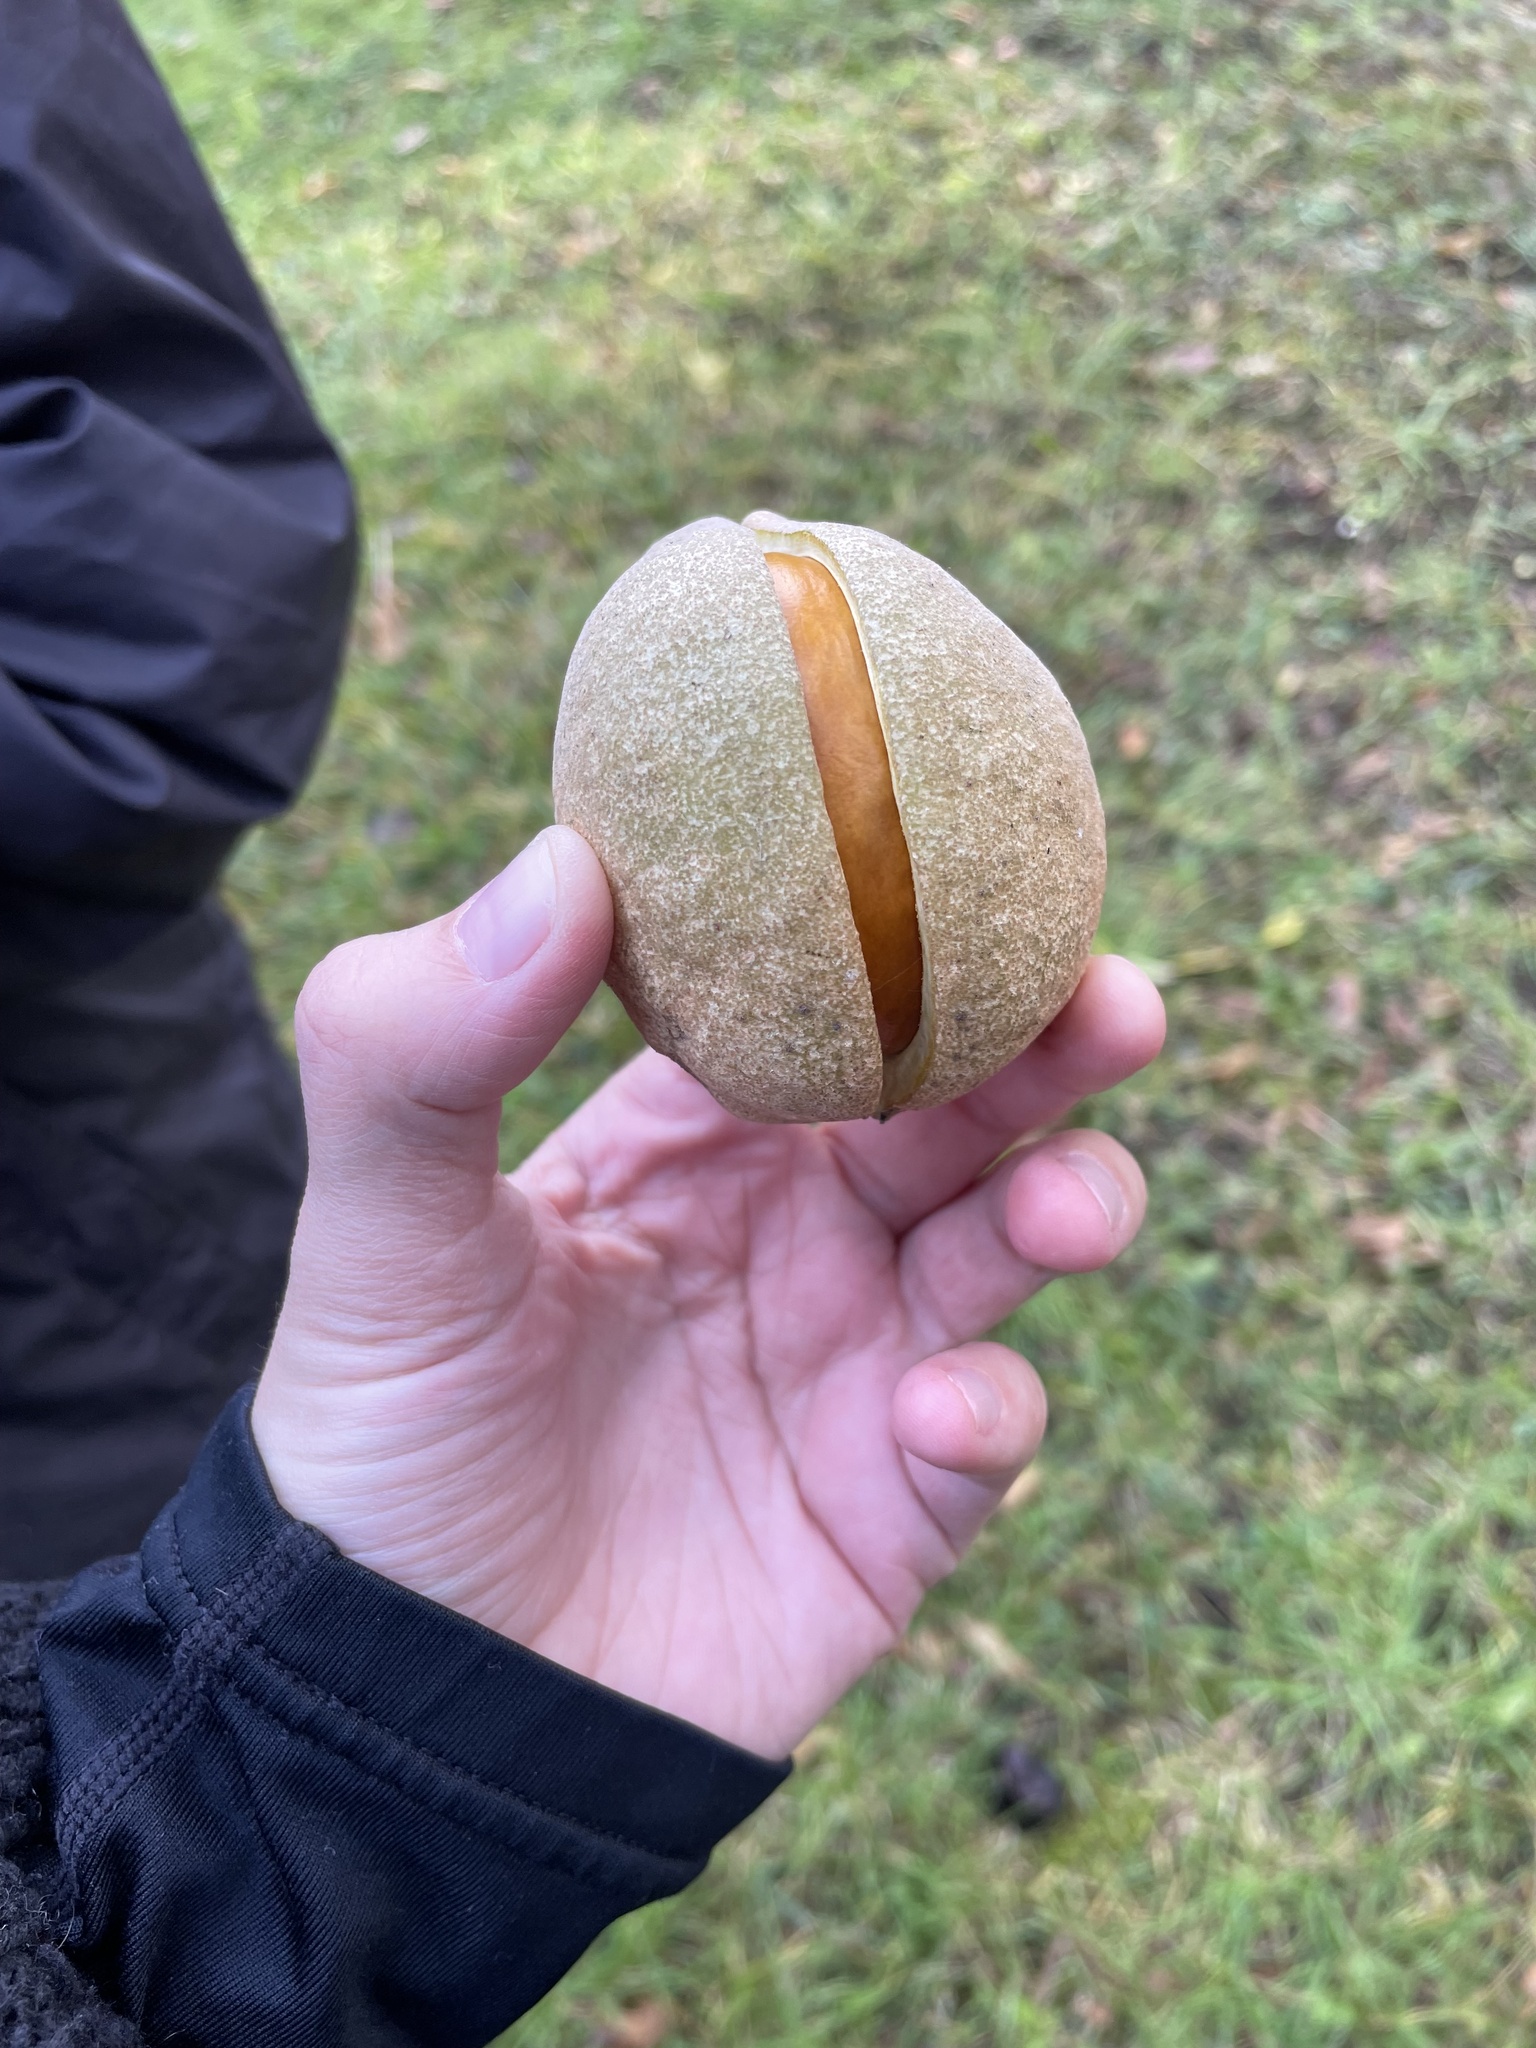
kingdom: Plantae
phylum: Tracheophyta
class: Magnoliopsida
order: Sapindales
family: Sapindaceae
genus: Aesculus
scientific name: Aesculus californica
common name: California buckeye
